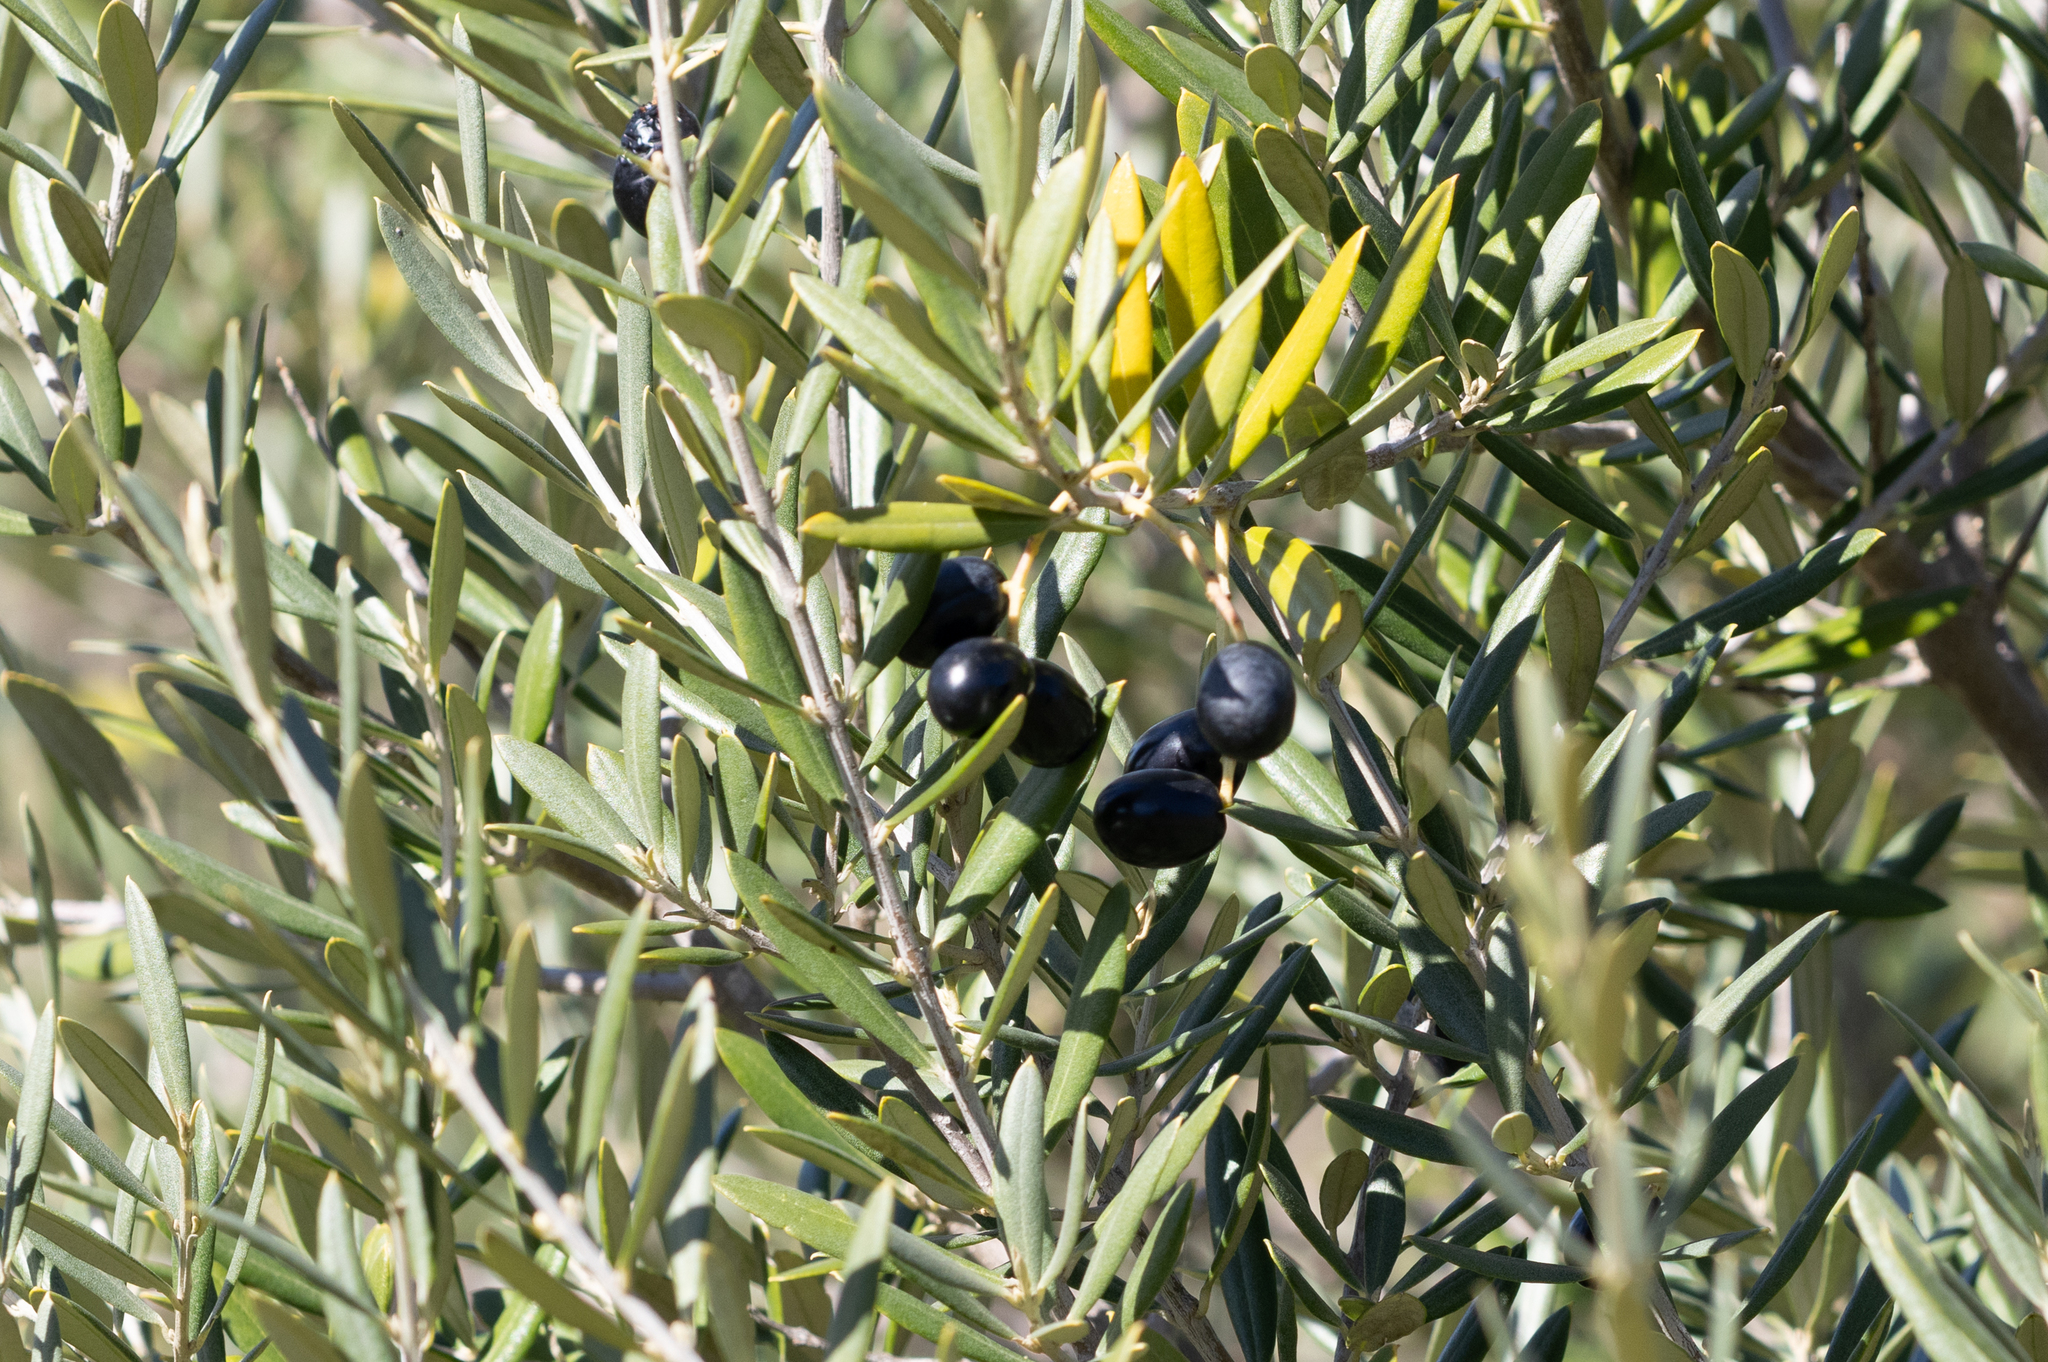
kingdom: Plantae
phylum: Tracheophyta
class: Magnoliopsida
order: Lamiales
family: Oleaceae
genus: Olea
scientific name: Olea europaea
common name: Olive
